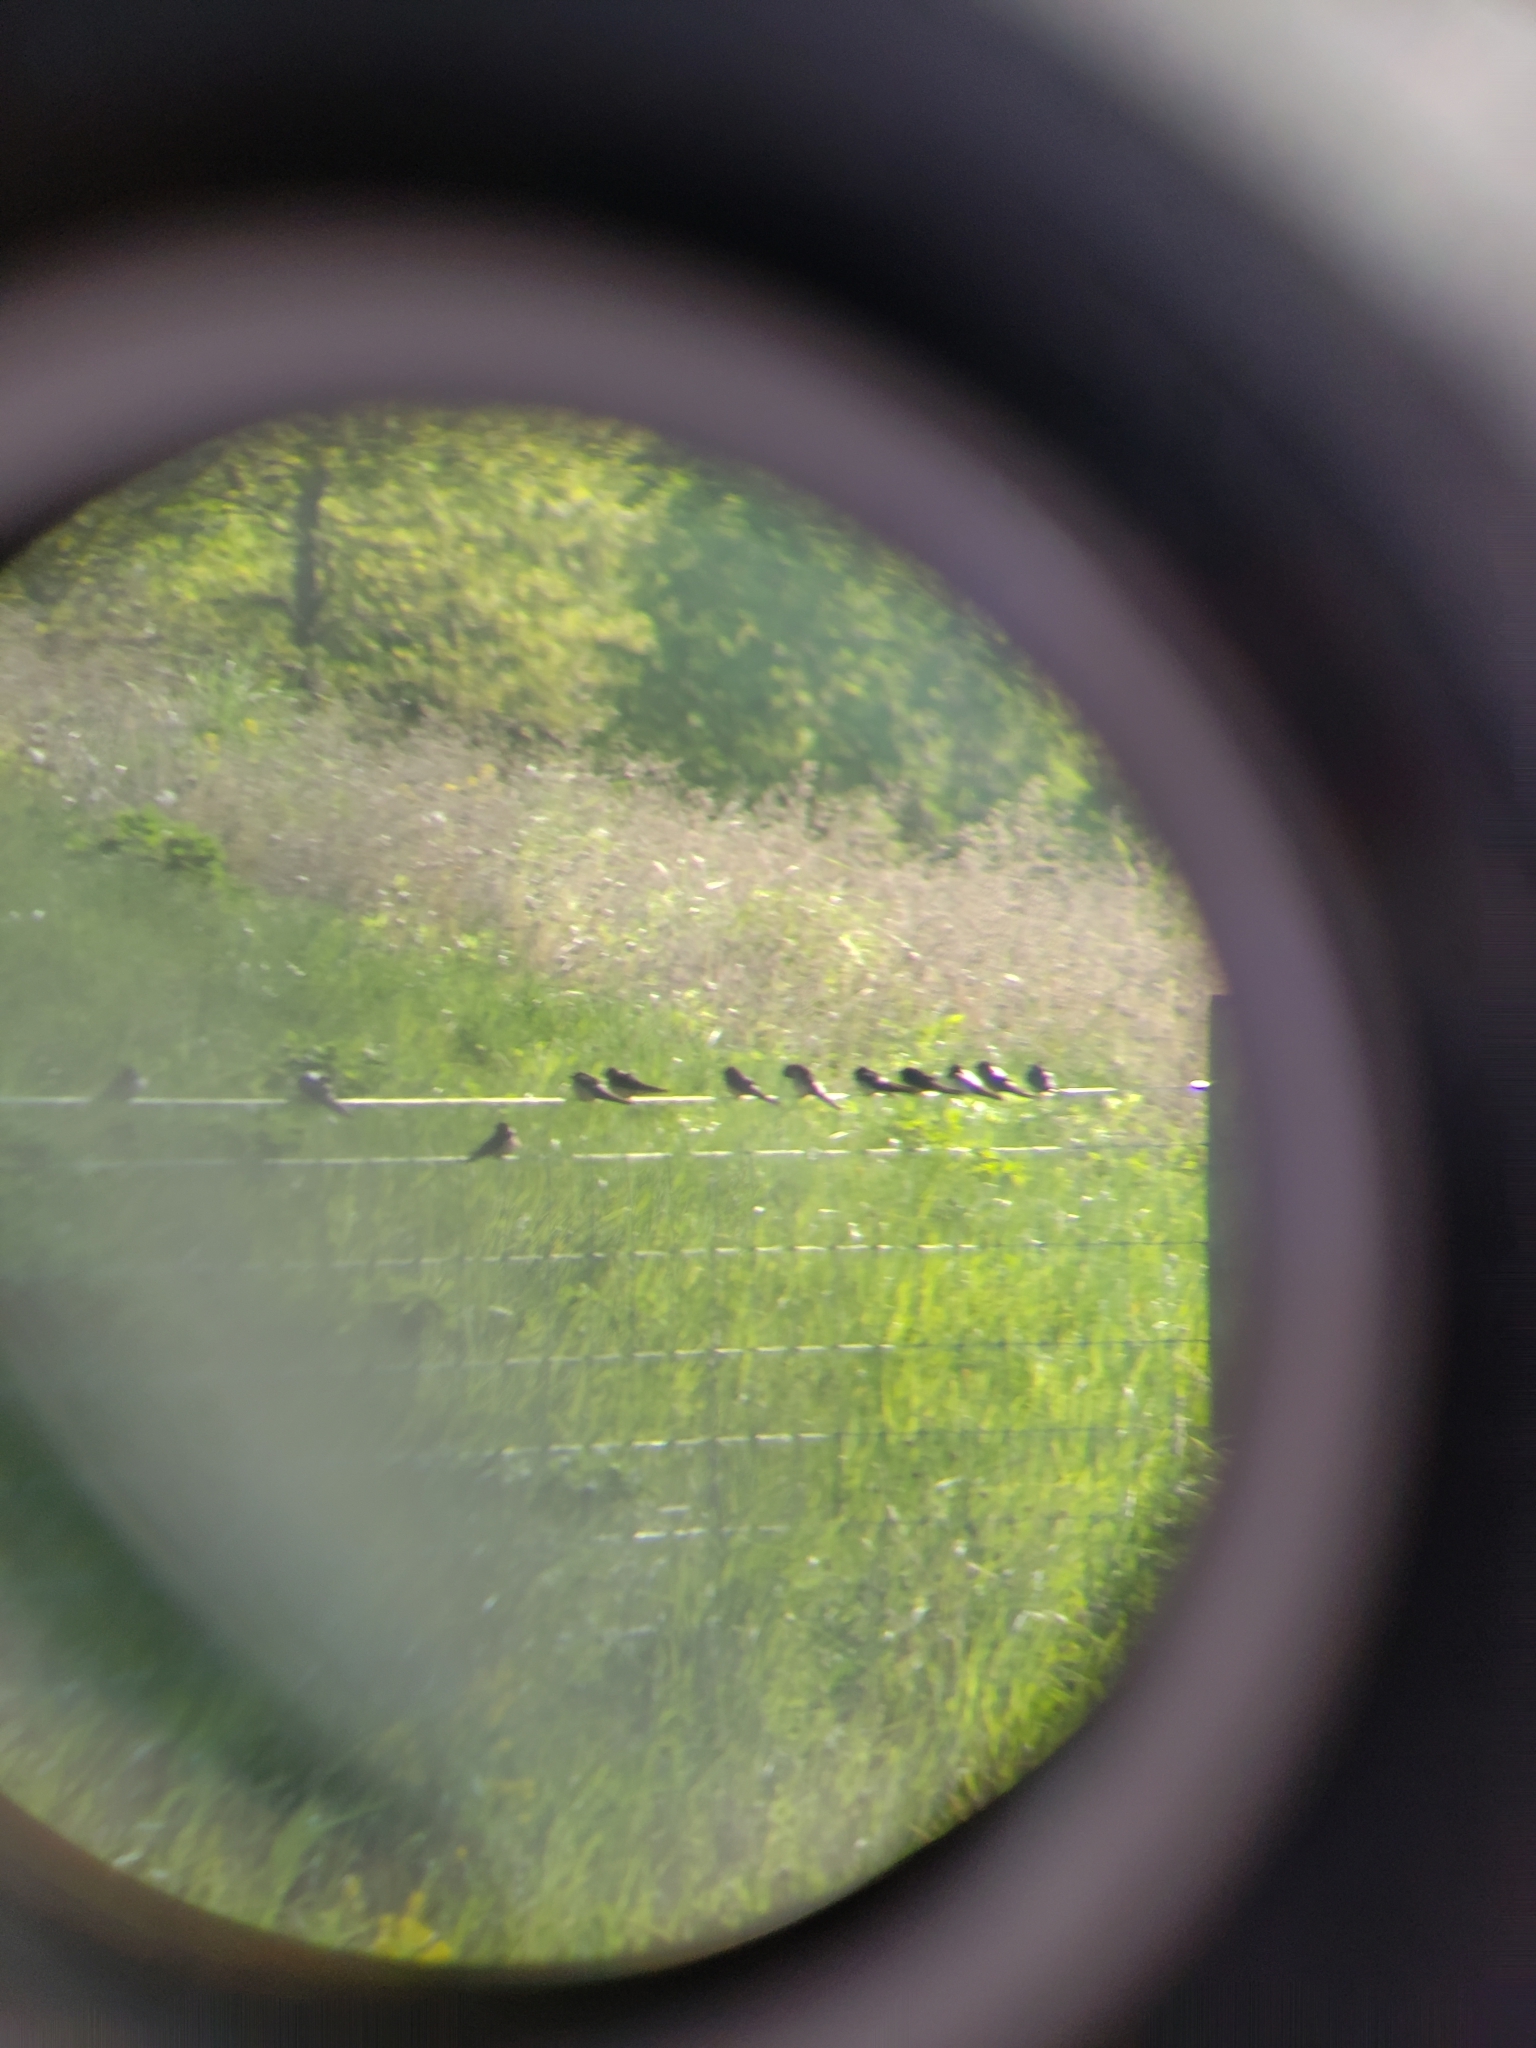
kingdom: Animalia
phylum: Chordata
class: Aves
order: Passeriformes
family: Hirundinidae
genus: Hirundo
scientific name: Hirundo rustica
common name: Barn swallow
